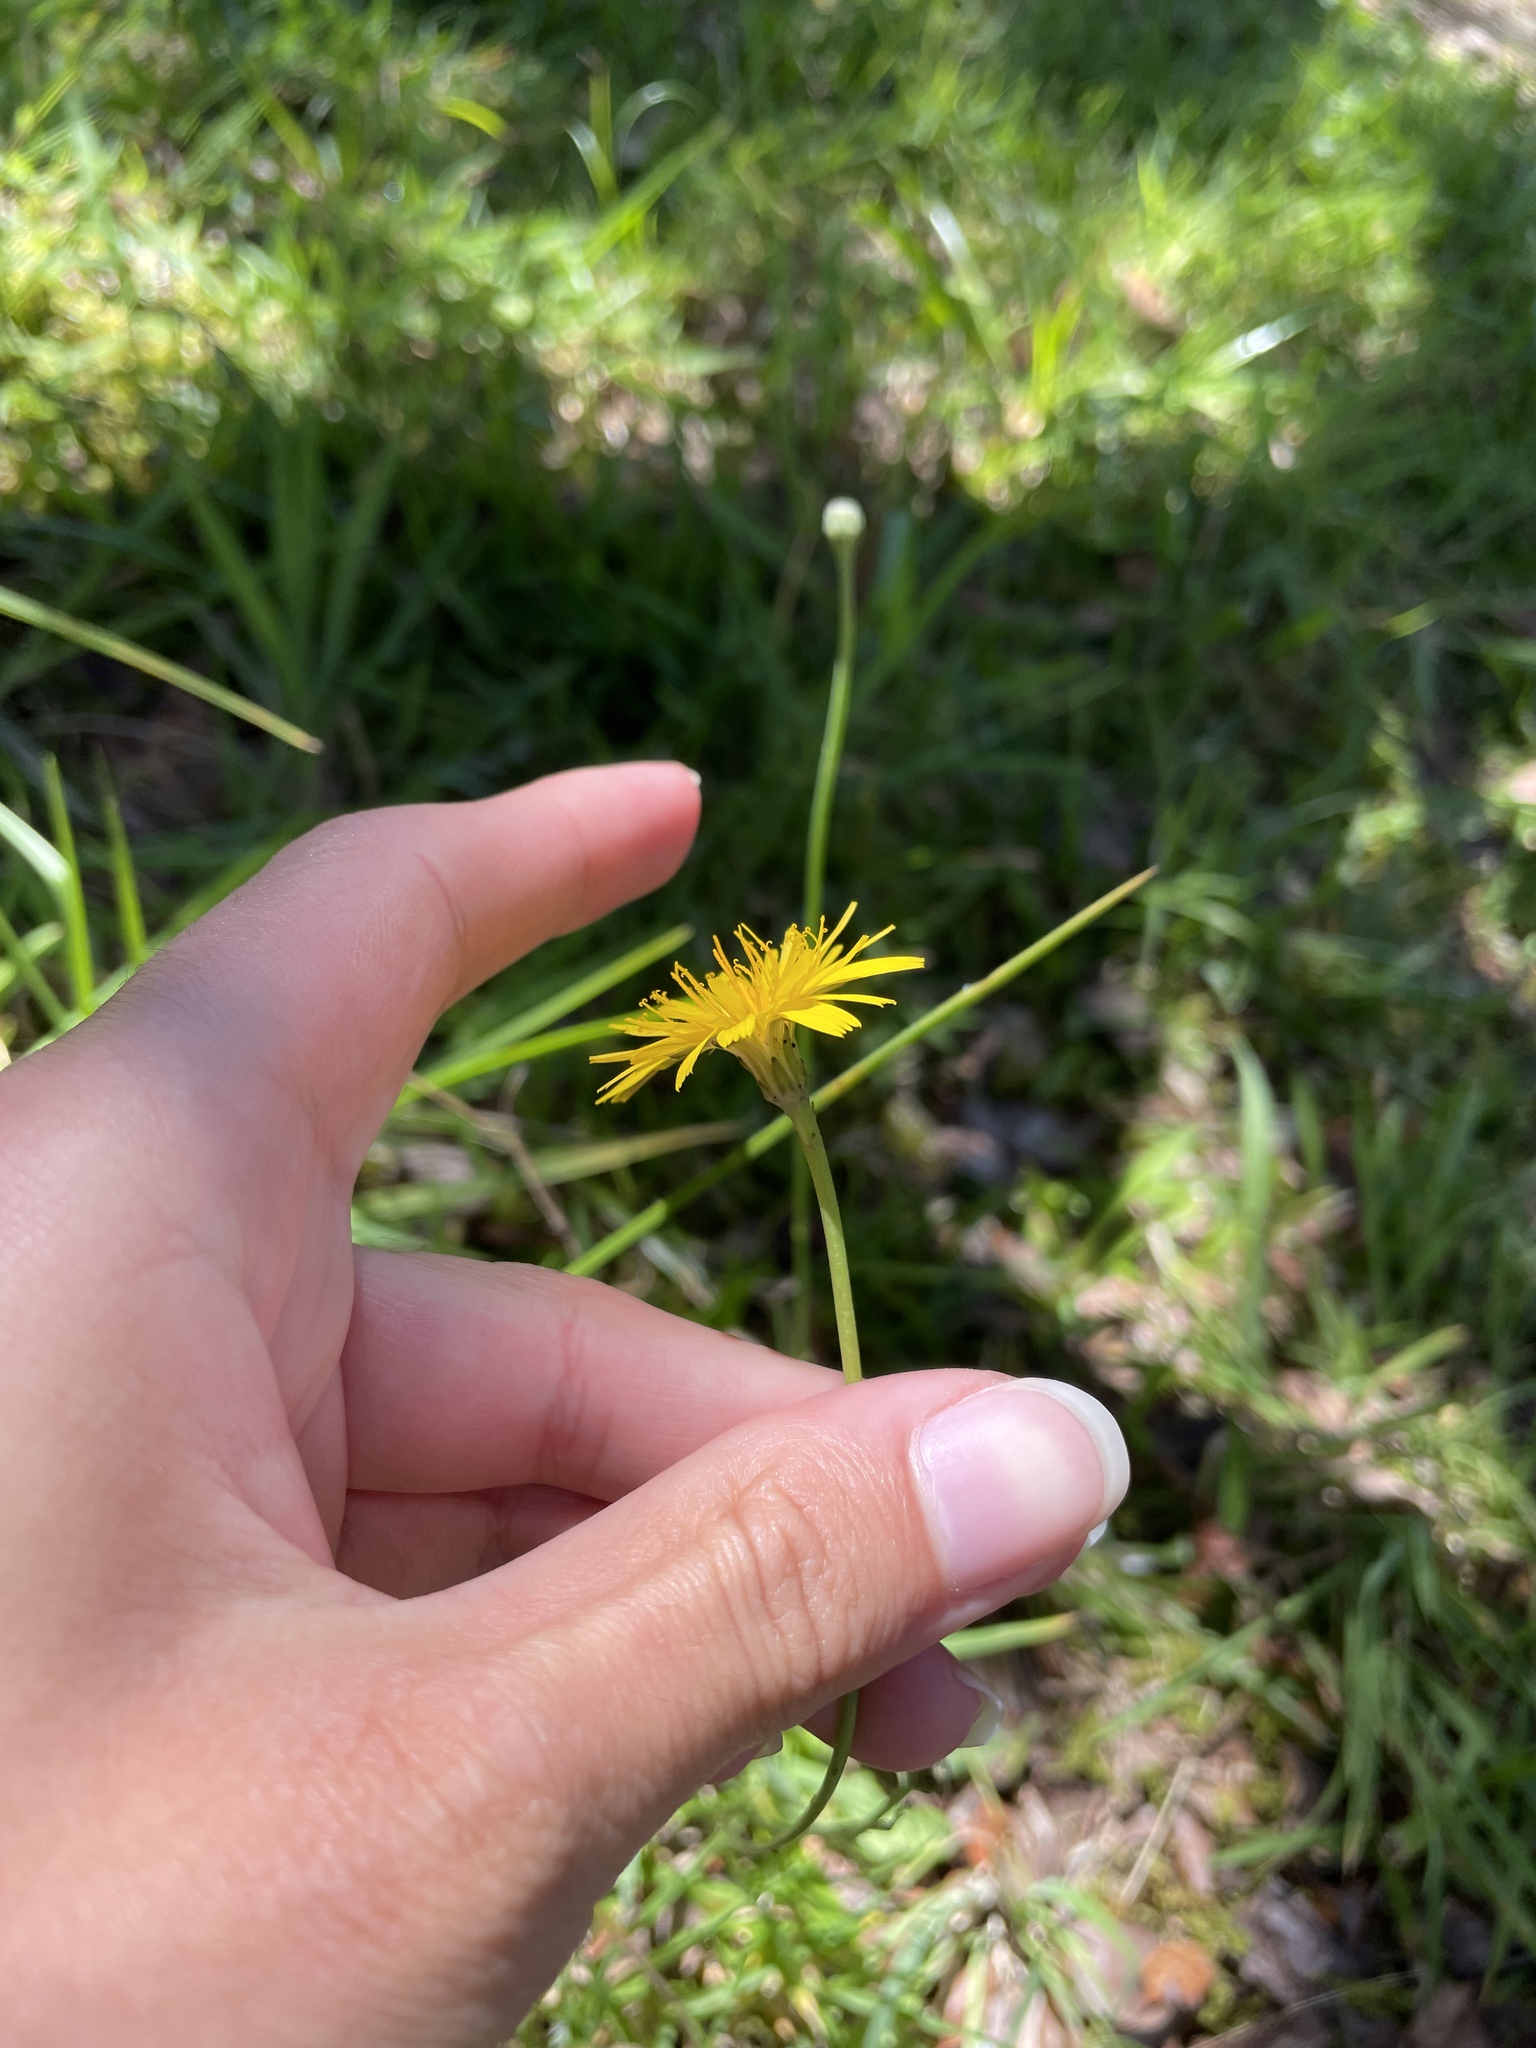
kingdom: Plantae
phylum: Tracheophyta
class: Magnoliopsida
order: Asterales
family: Asteraceae
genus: Hypochaeris
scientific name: Hypochaeris radicata
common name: Flatweed
